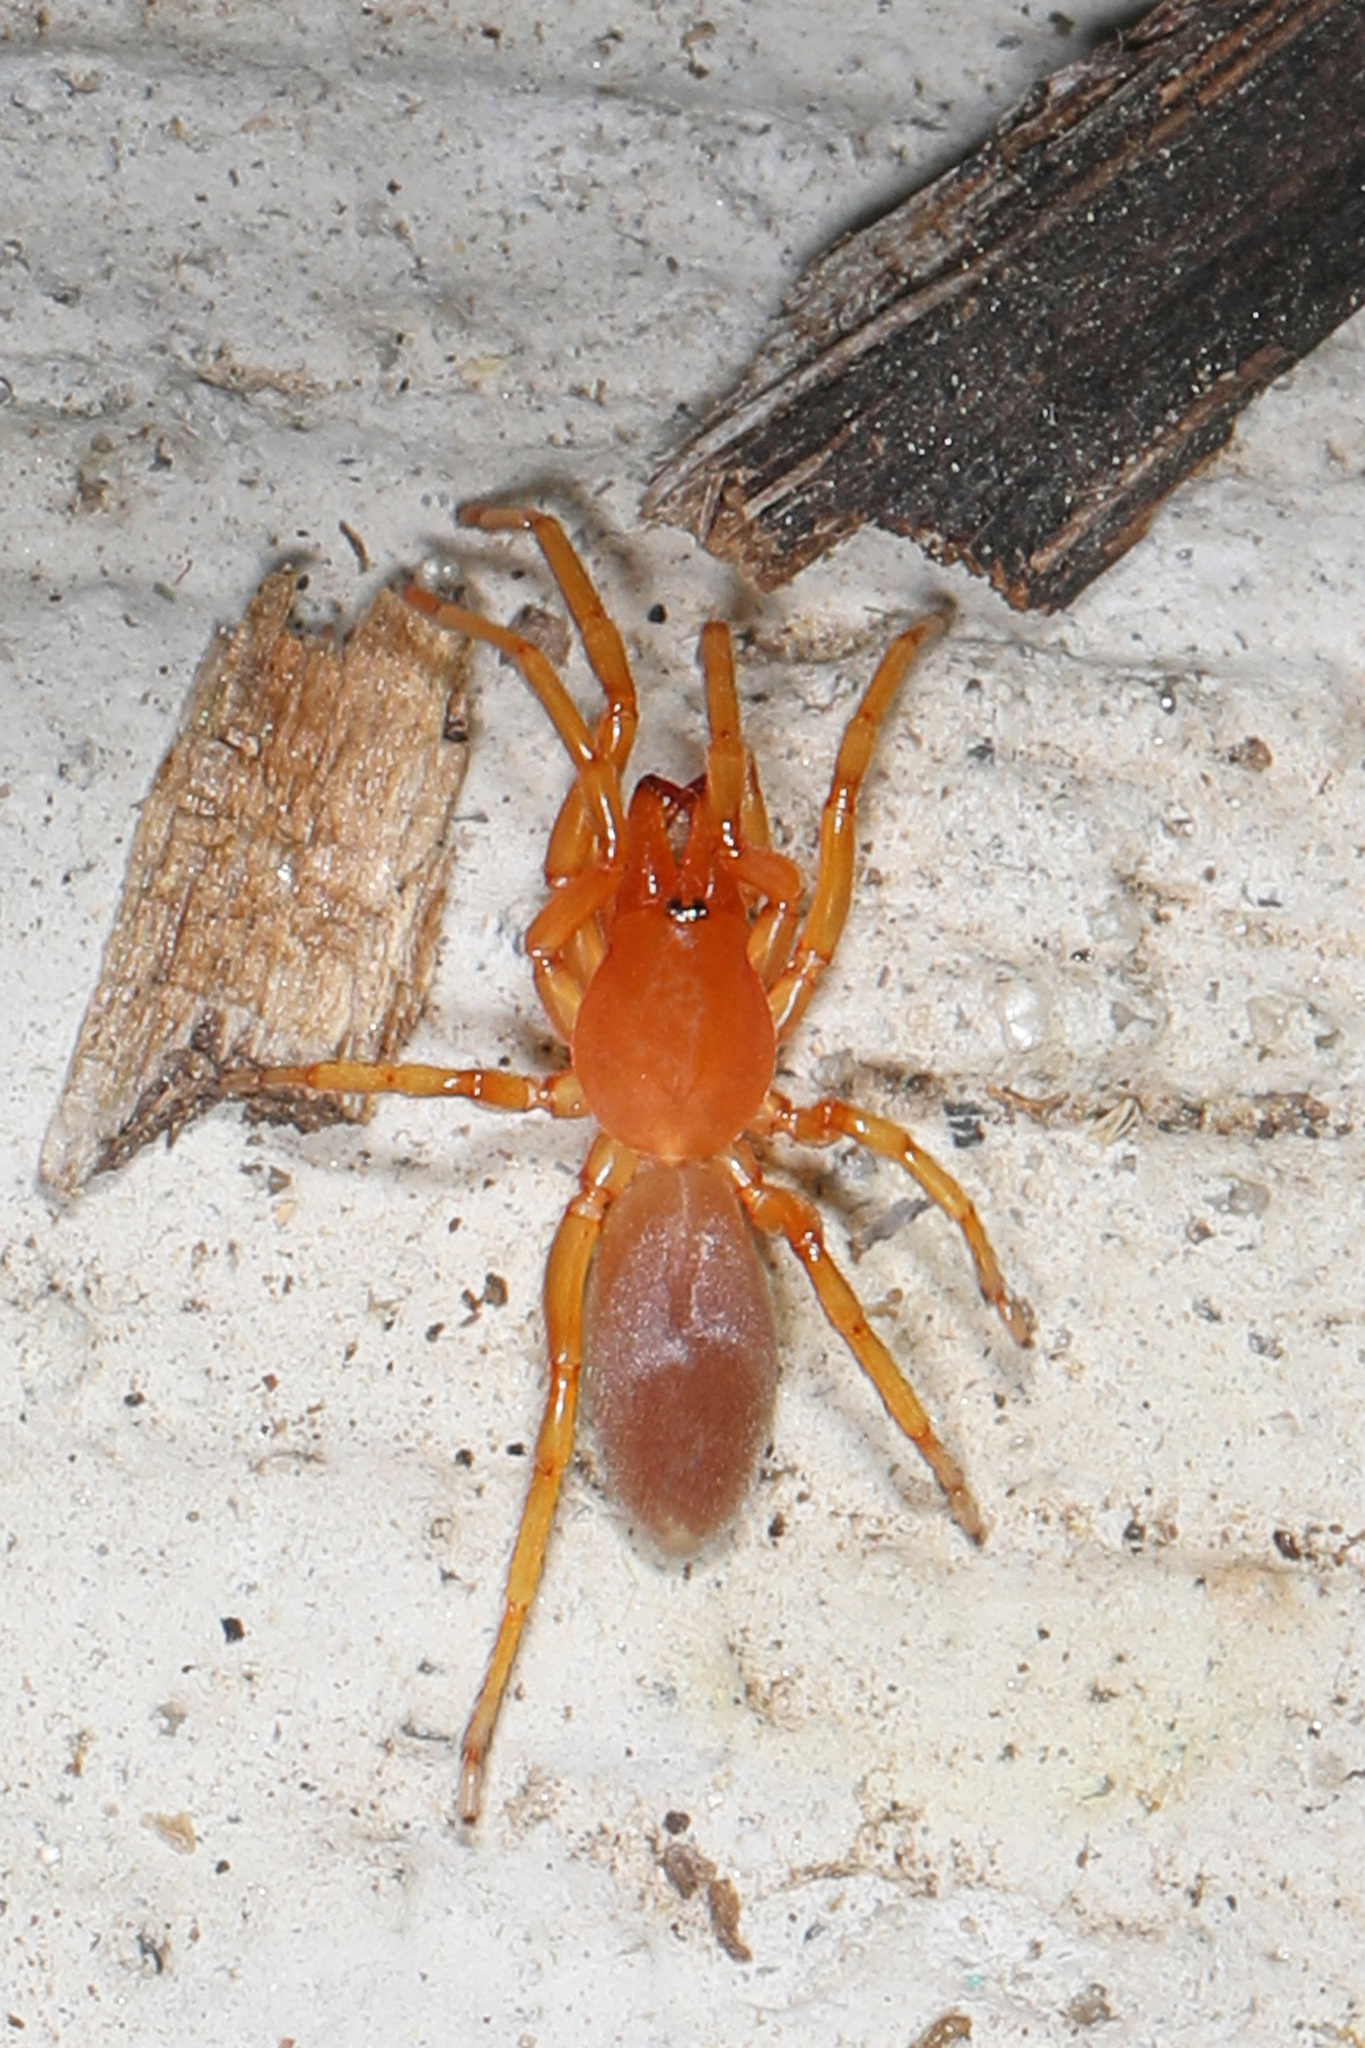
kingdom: Animalia
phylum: Arthropoda
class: Arachnida
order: Araneae
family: Dysderidae
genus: Dysdera
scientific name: Dysdera crocata
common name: Woodlouse spider
